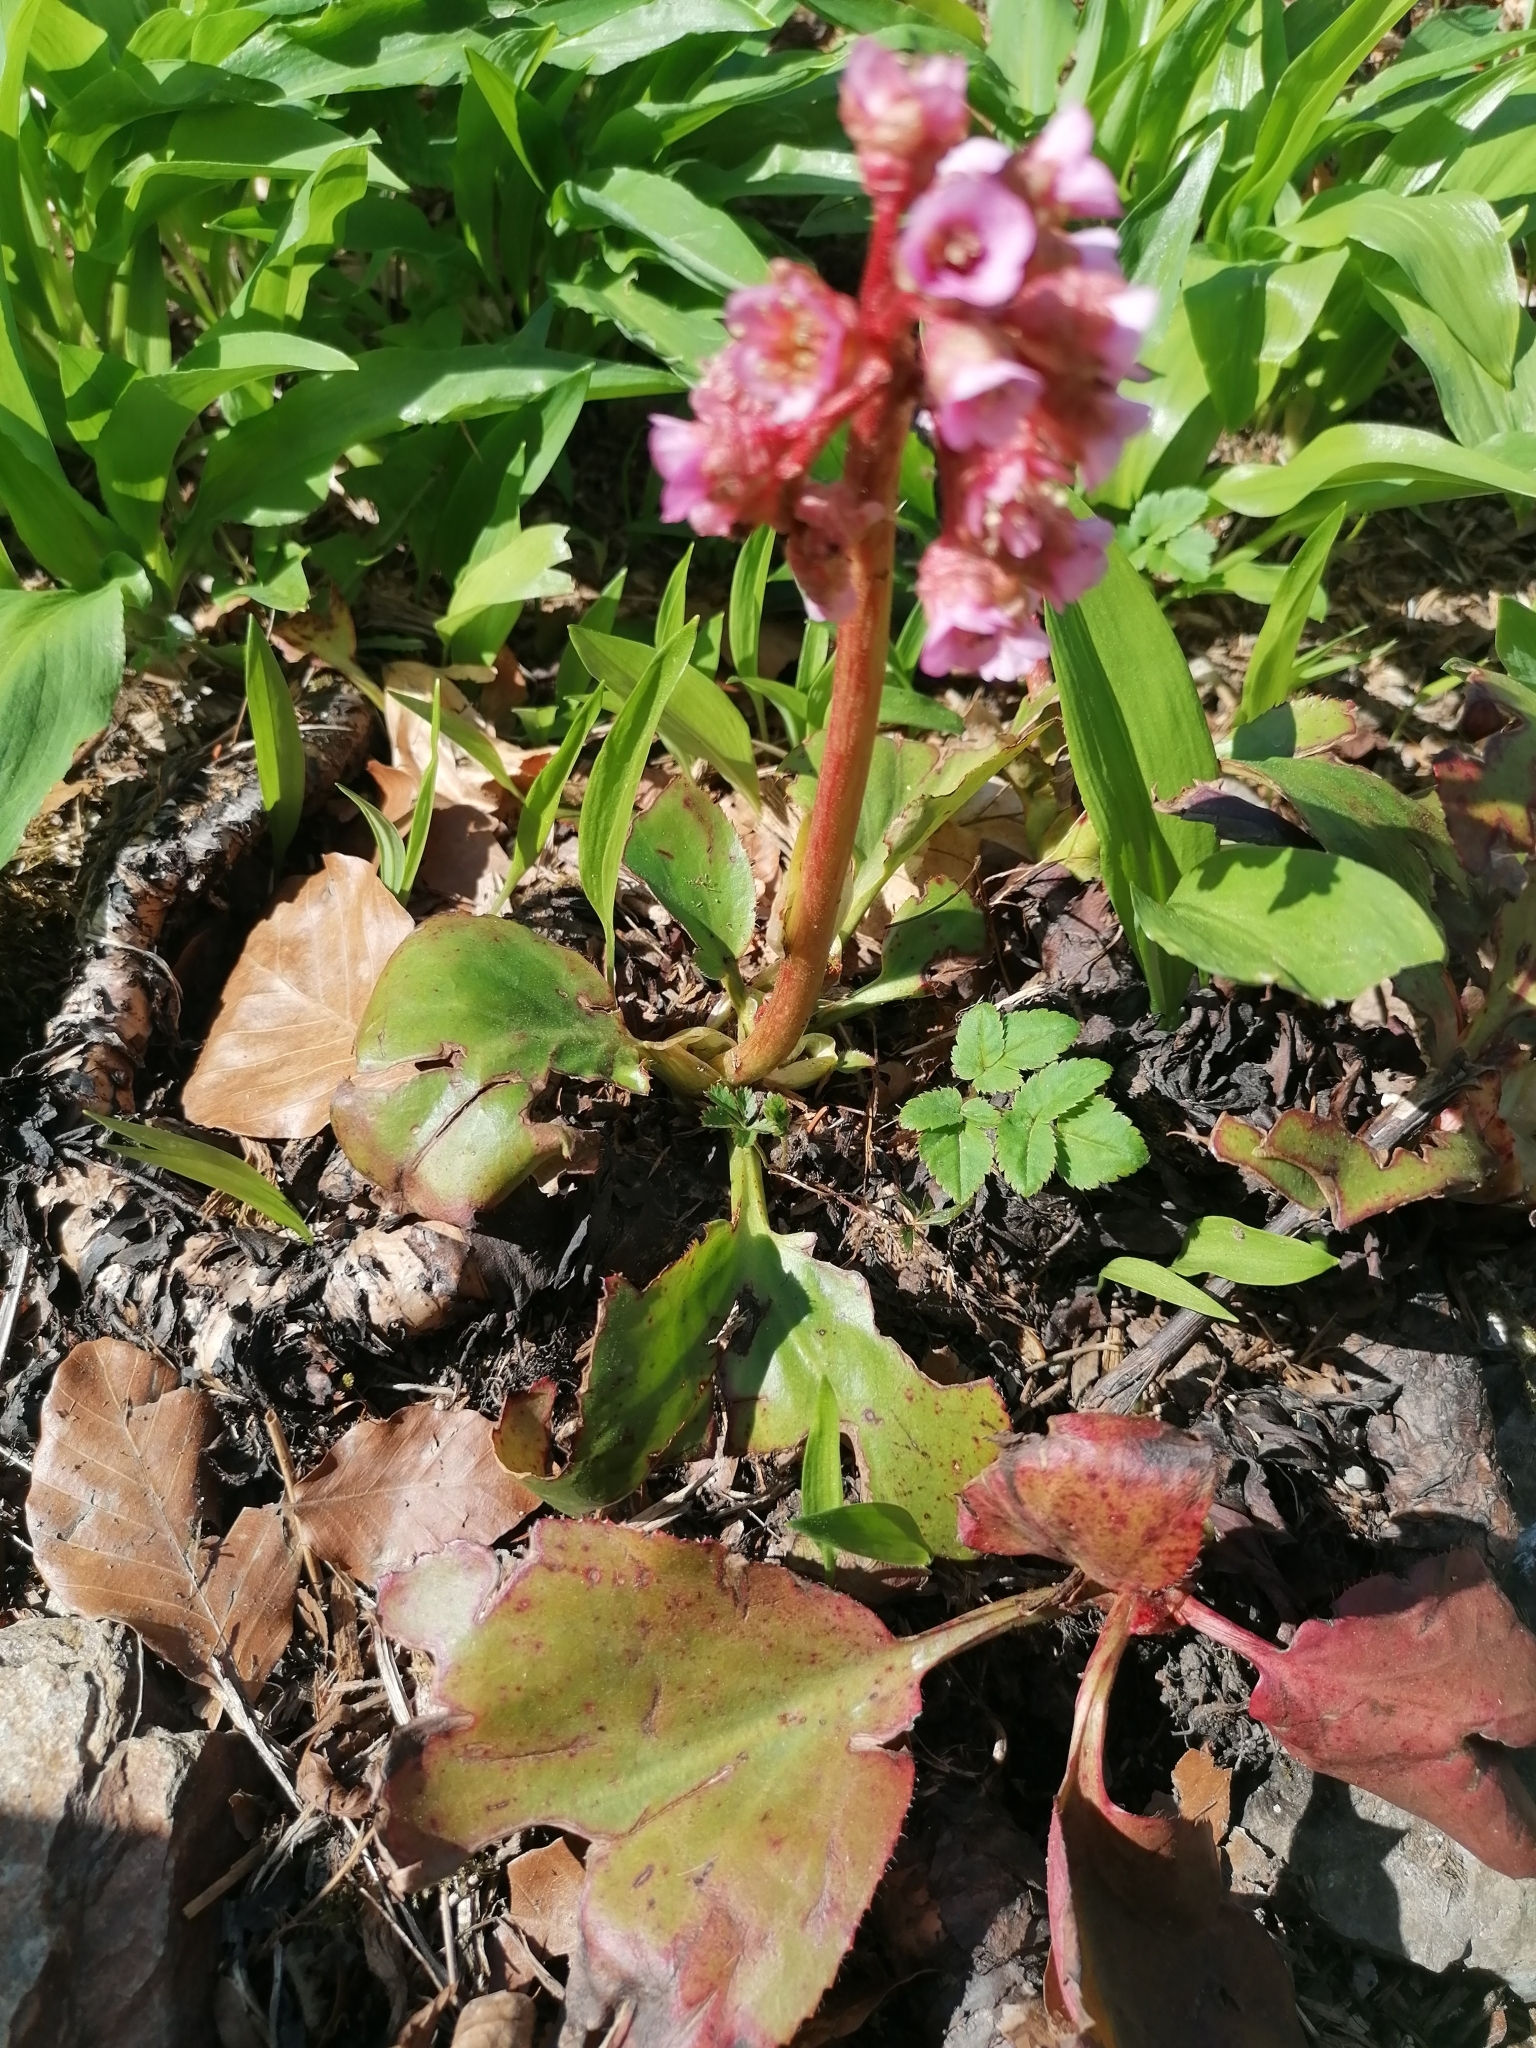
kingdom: Plantae
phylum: Tracheophyta
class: Magnoliopsida
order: Saxifragales
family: Saxifragaceae
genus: Bergenia
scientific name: Bergenia crassifolia
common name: Elephant-ears
